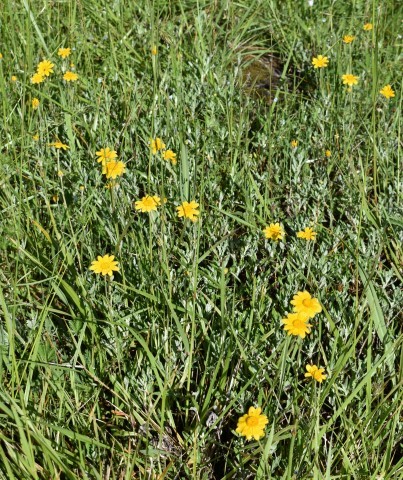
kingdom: Plantae
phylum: Tracheophyta
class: Magnoliopsida
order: Asterales
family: Asteraceae
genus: Eriophyllum
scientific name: Eriophyllum lanatum
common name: Common woolly-sunflower
